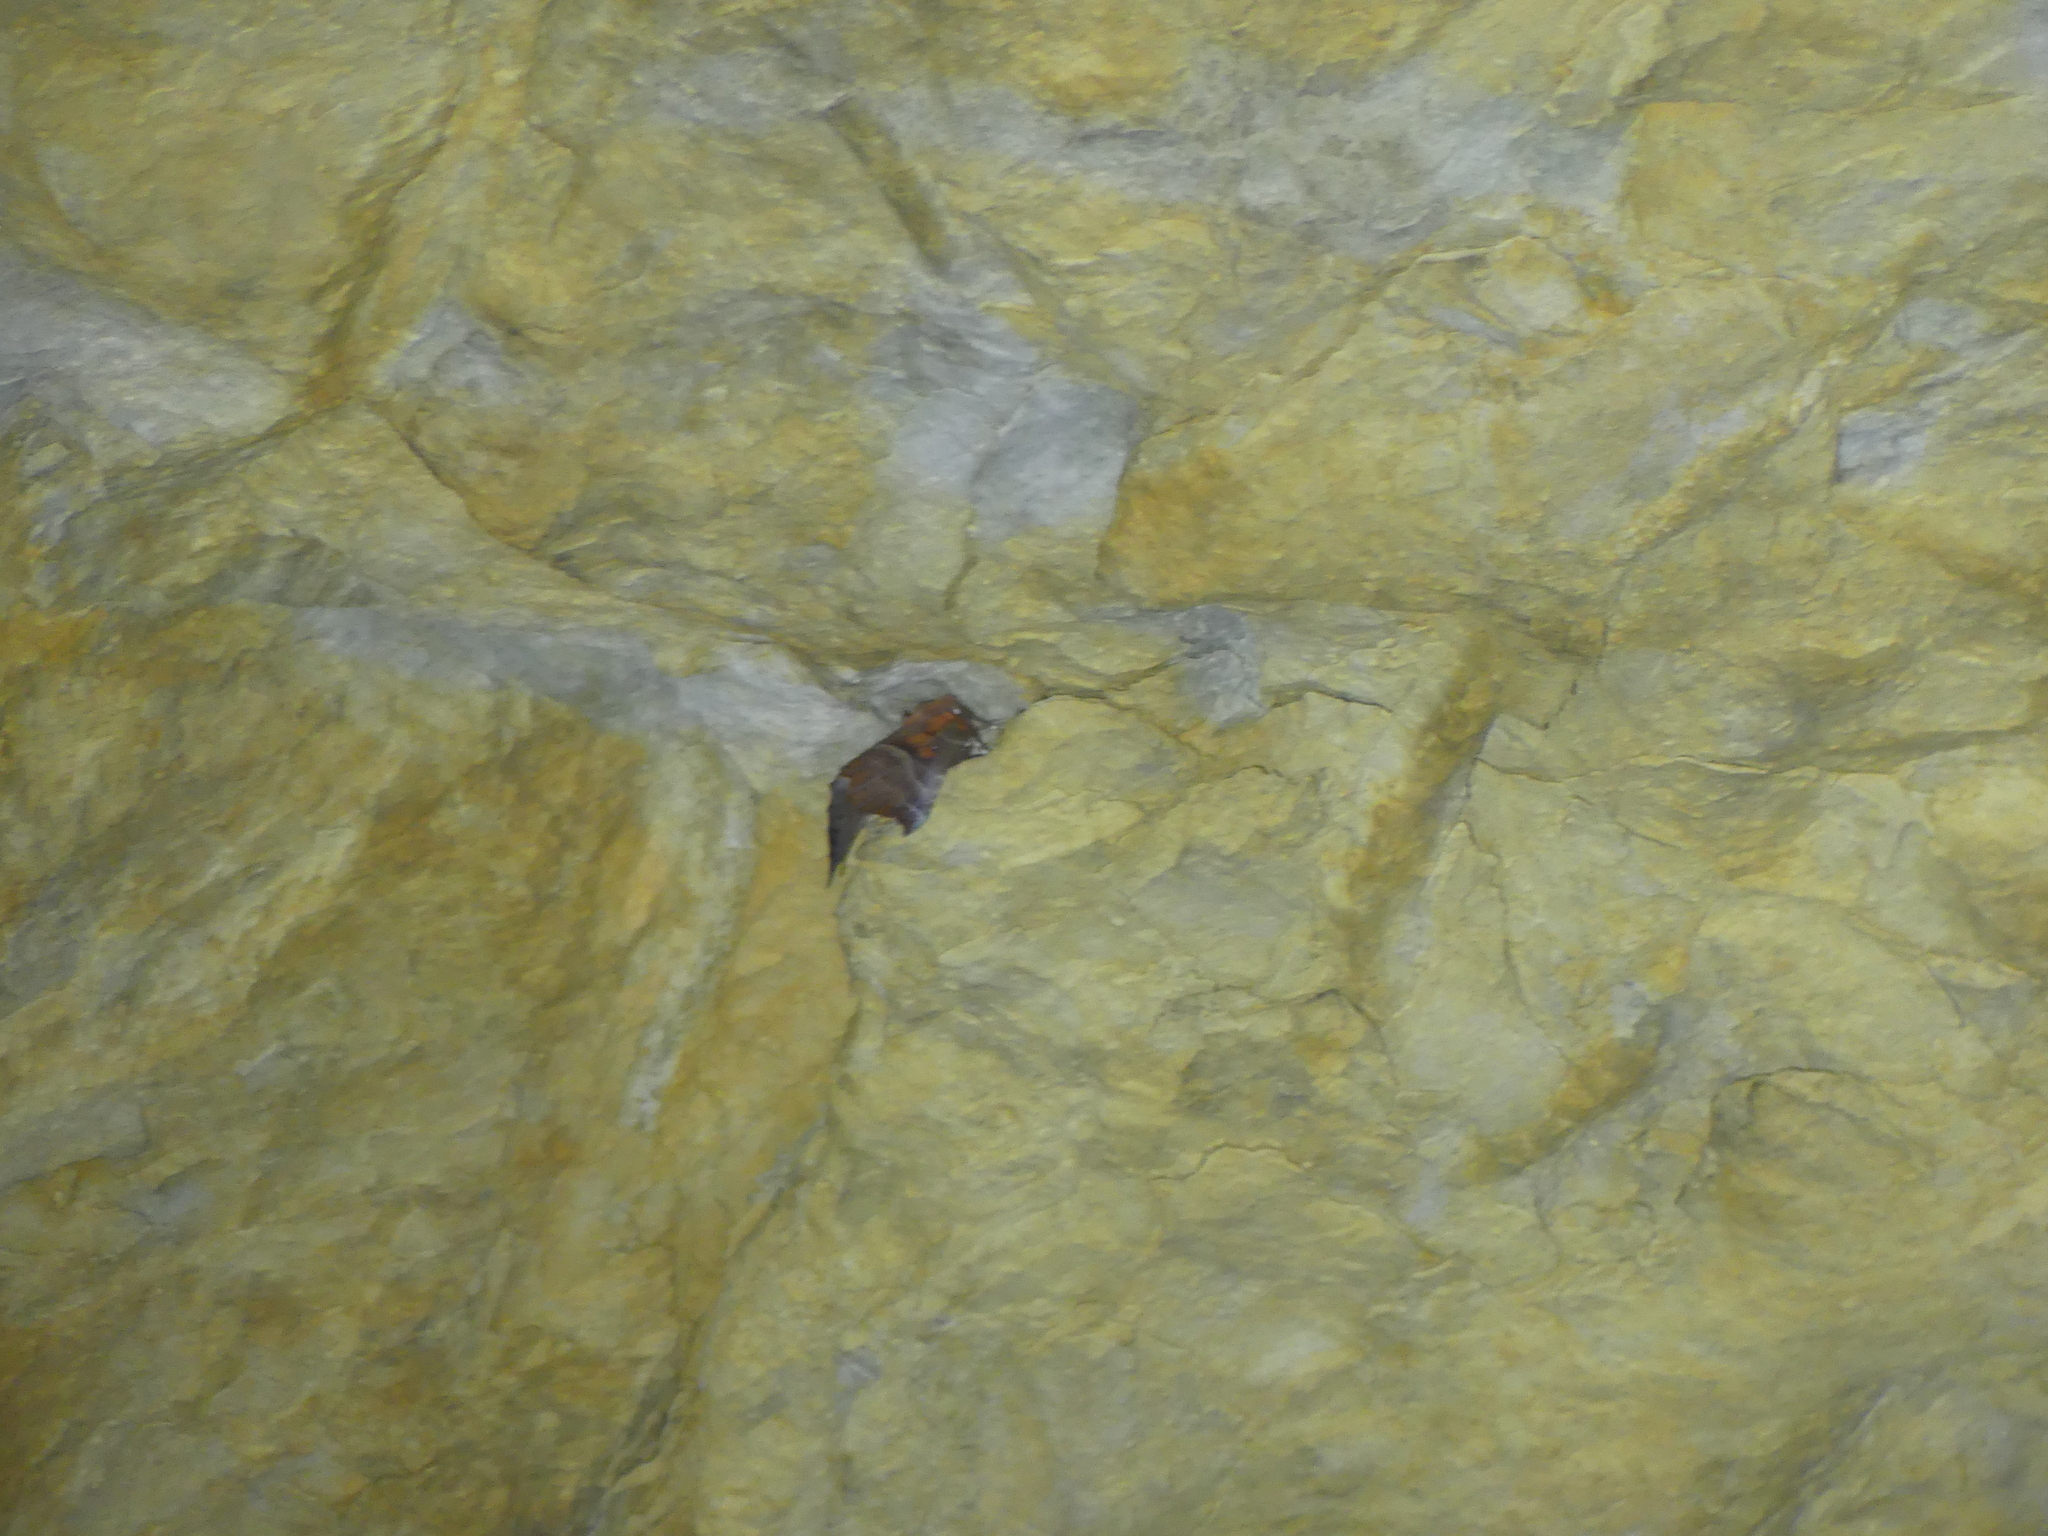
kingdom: Animalia
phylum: Arthropoda
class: Insecta
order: Lepidoptera
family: Erebidae
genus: Scoliopteryx
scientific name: Scoliopteryx libatrix
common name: Herald
